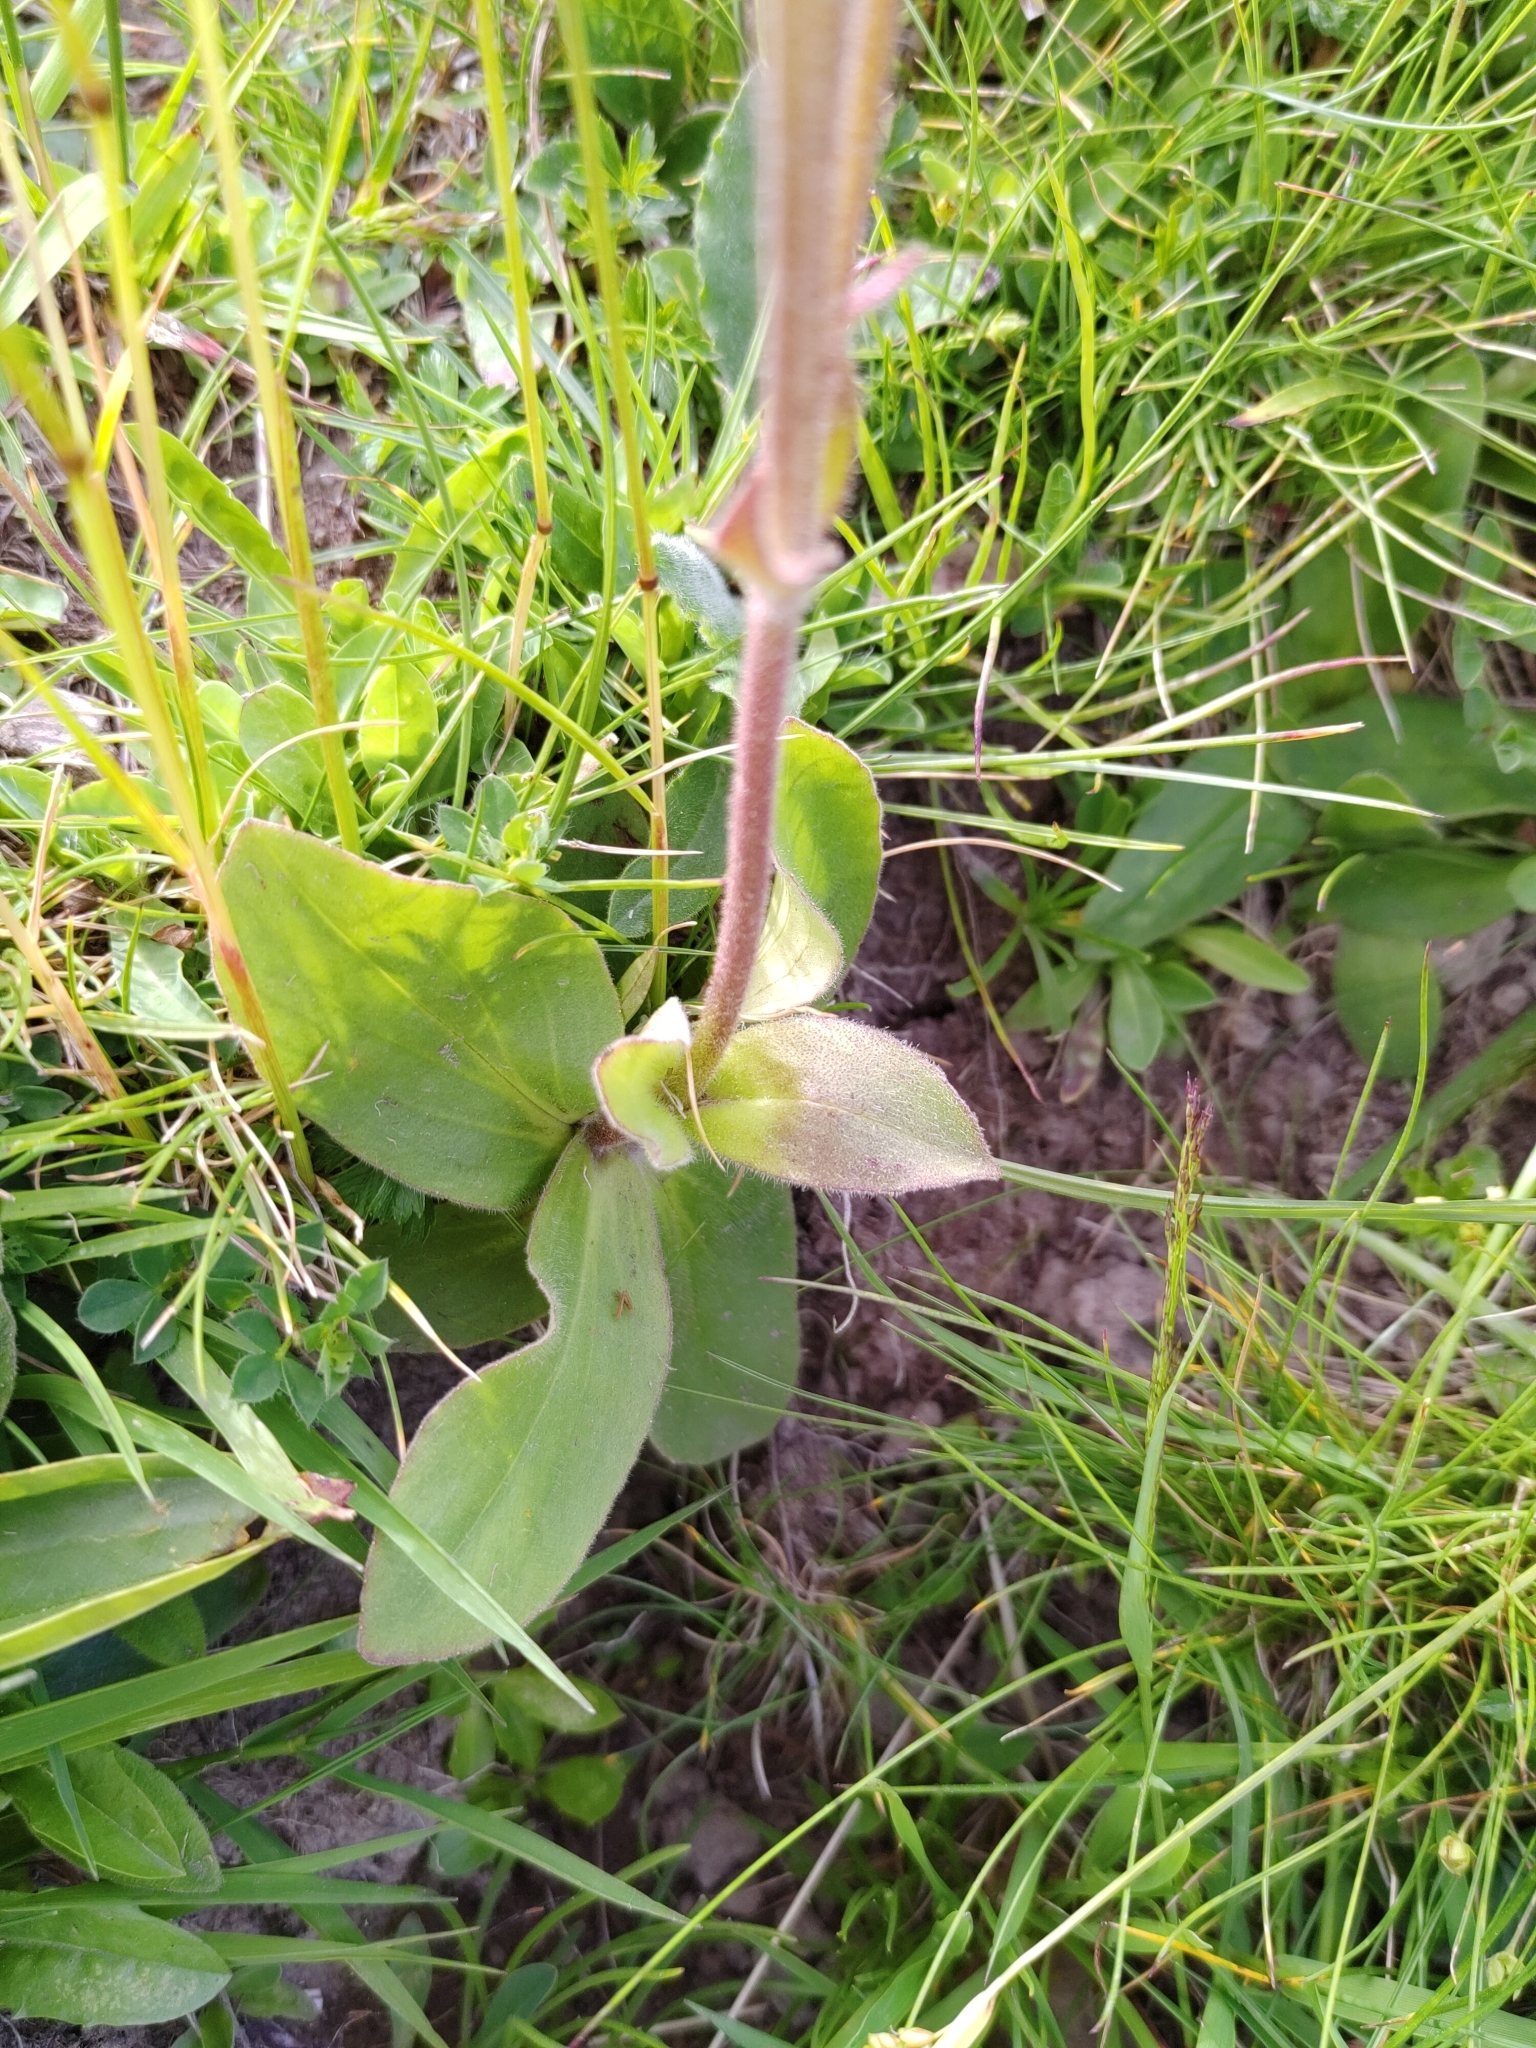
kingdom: Plantae
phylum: Tracheophyta
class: Magnoliopsida
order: Asterales
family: Asteraceae
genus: Arnica
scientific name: Arnica montana
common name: Leopard's bane
